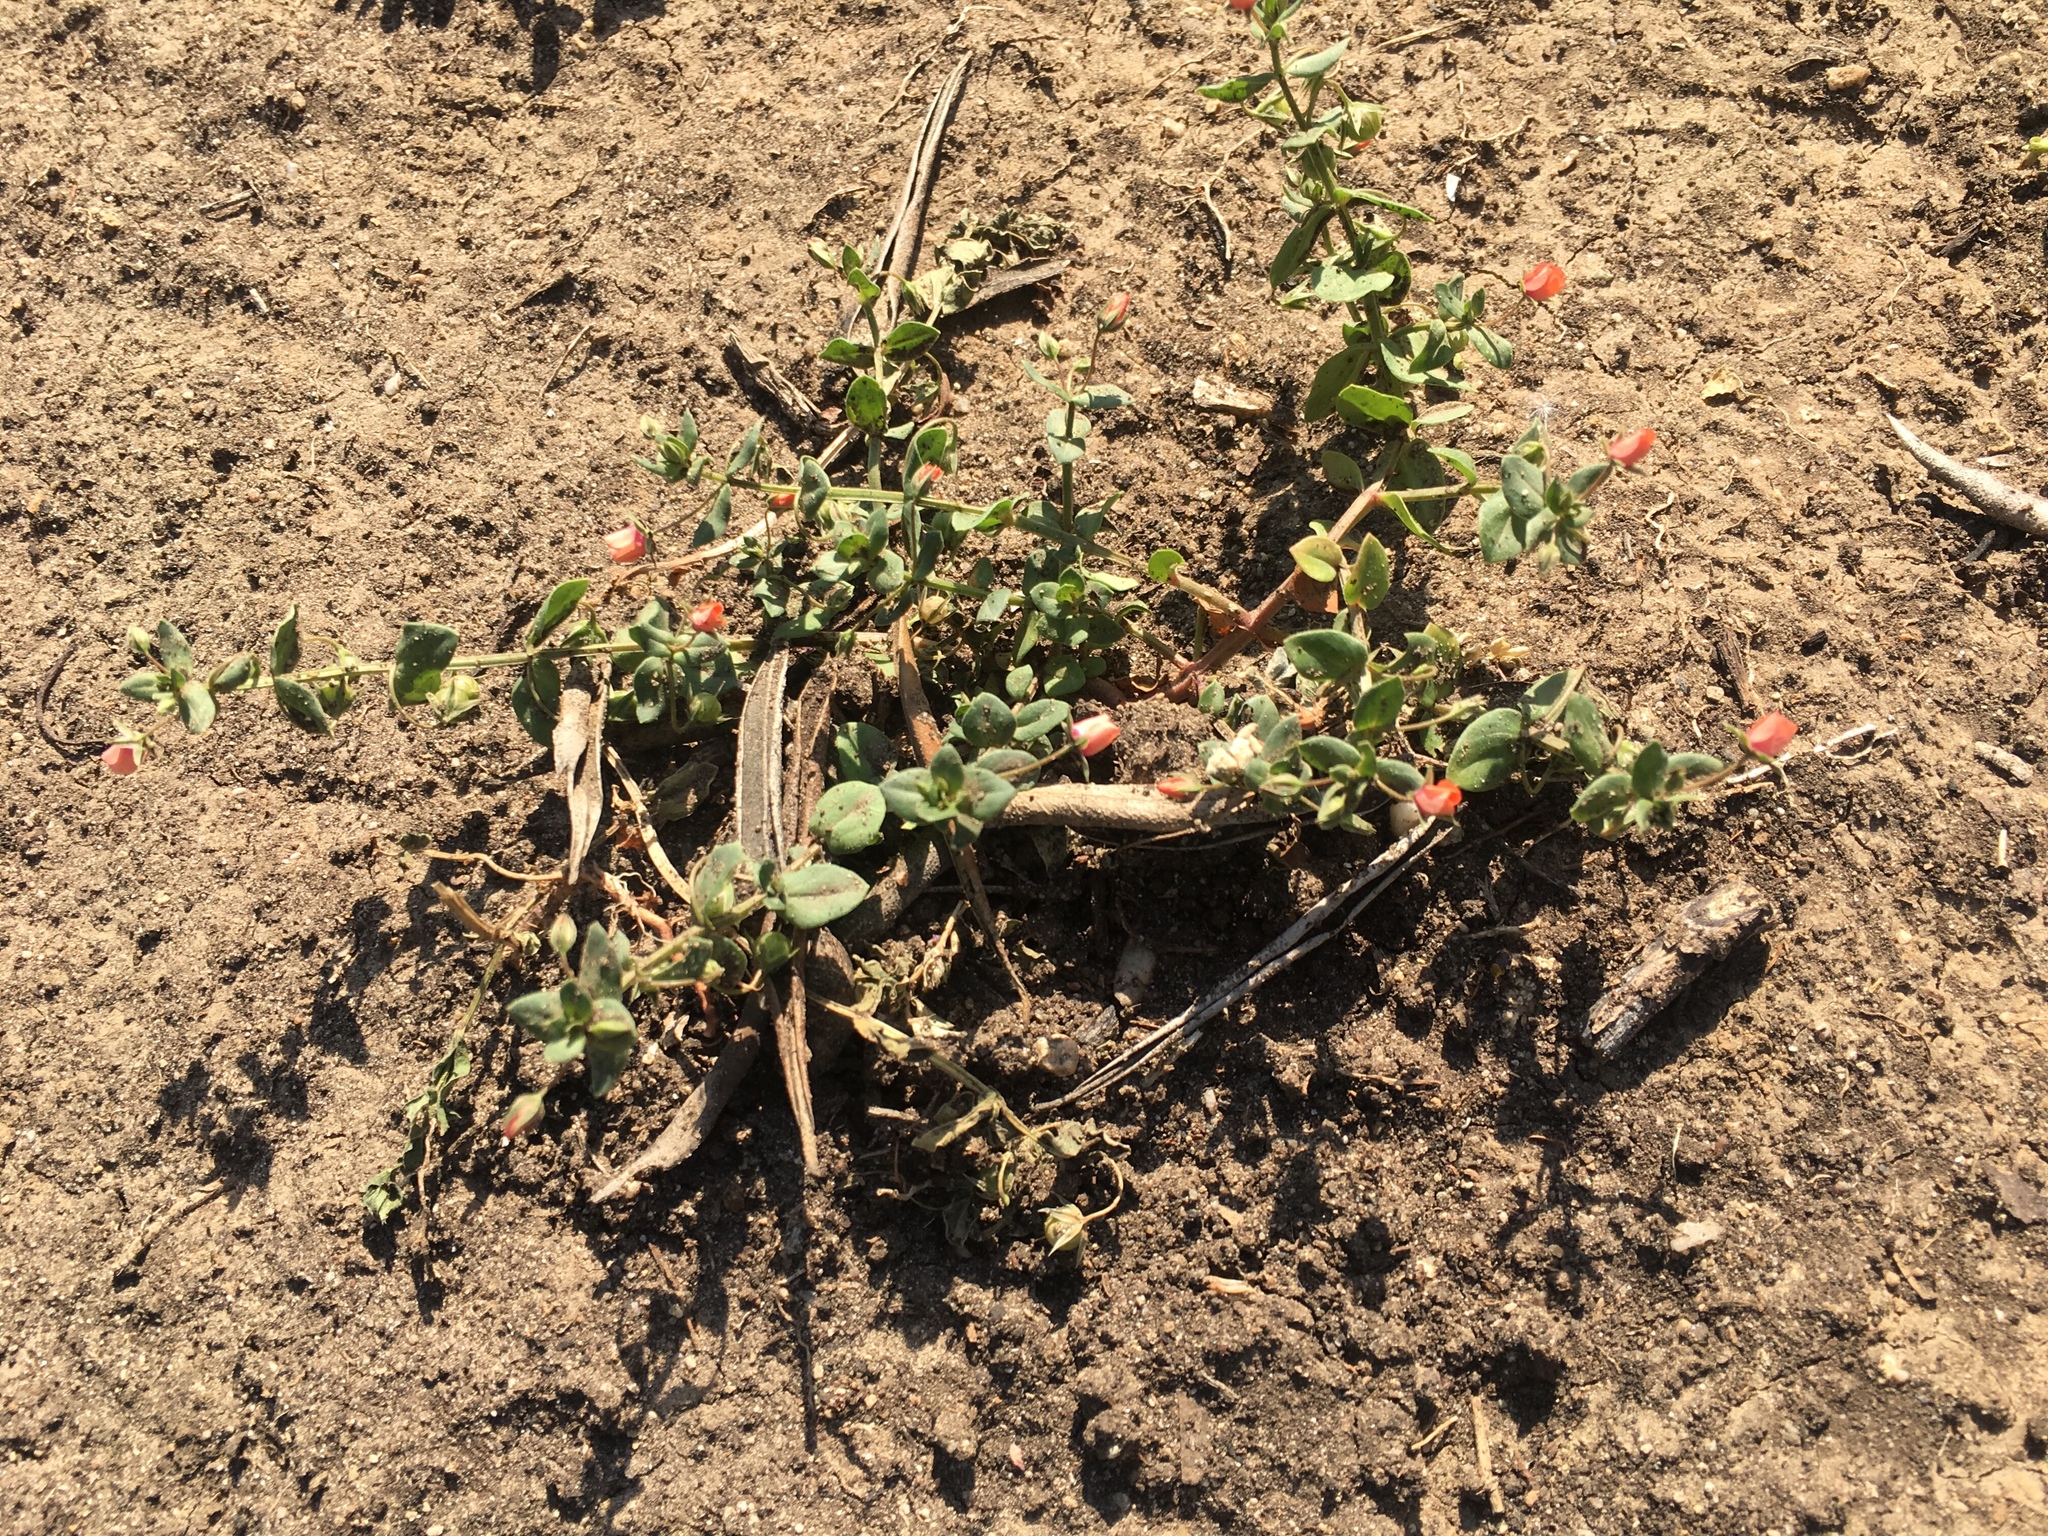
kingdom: Plantae
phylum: Tracheophyta
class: Magnoliopsida
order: Ericales
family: Primulaceae
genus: Lysimachia
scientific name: Lysimachia arvensis
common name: Scarlet pimpernel
